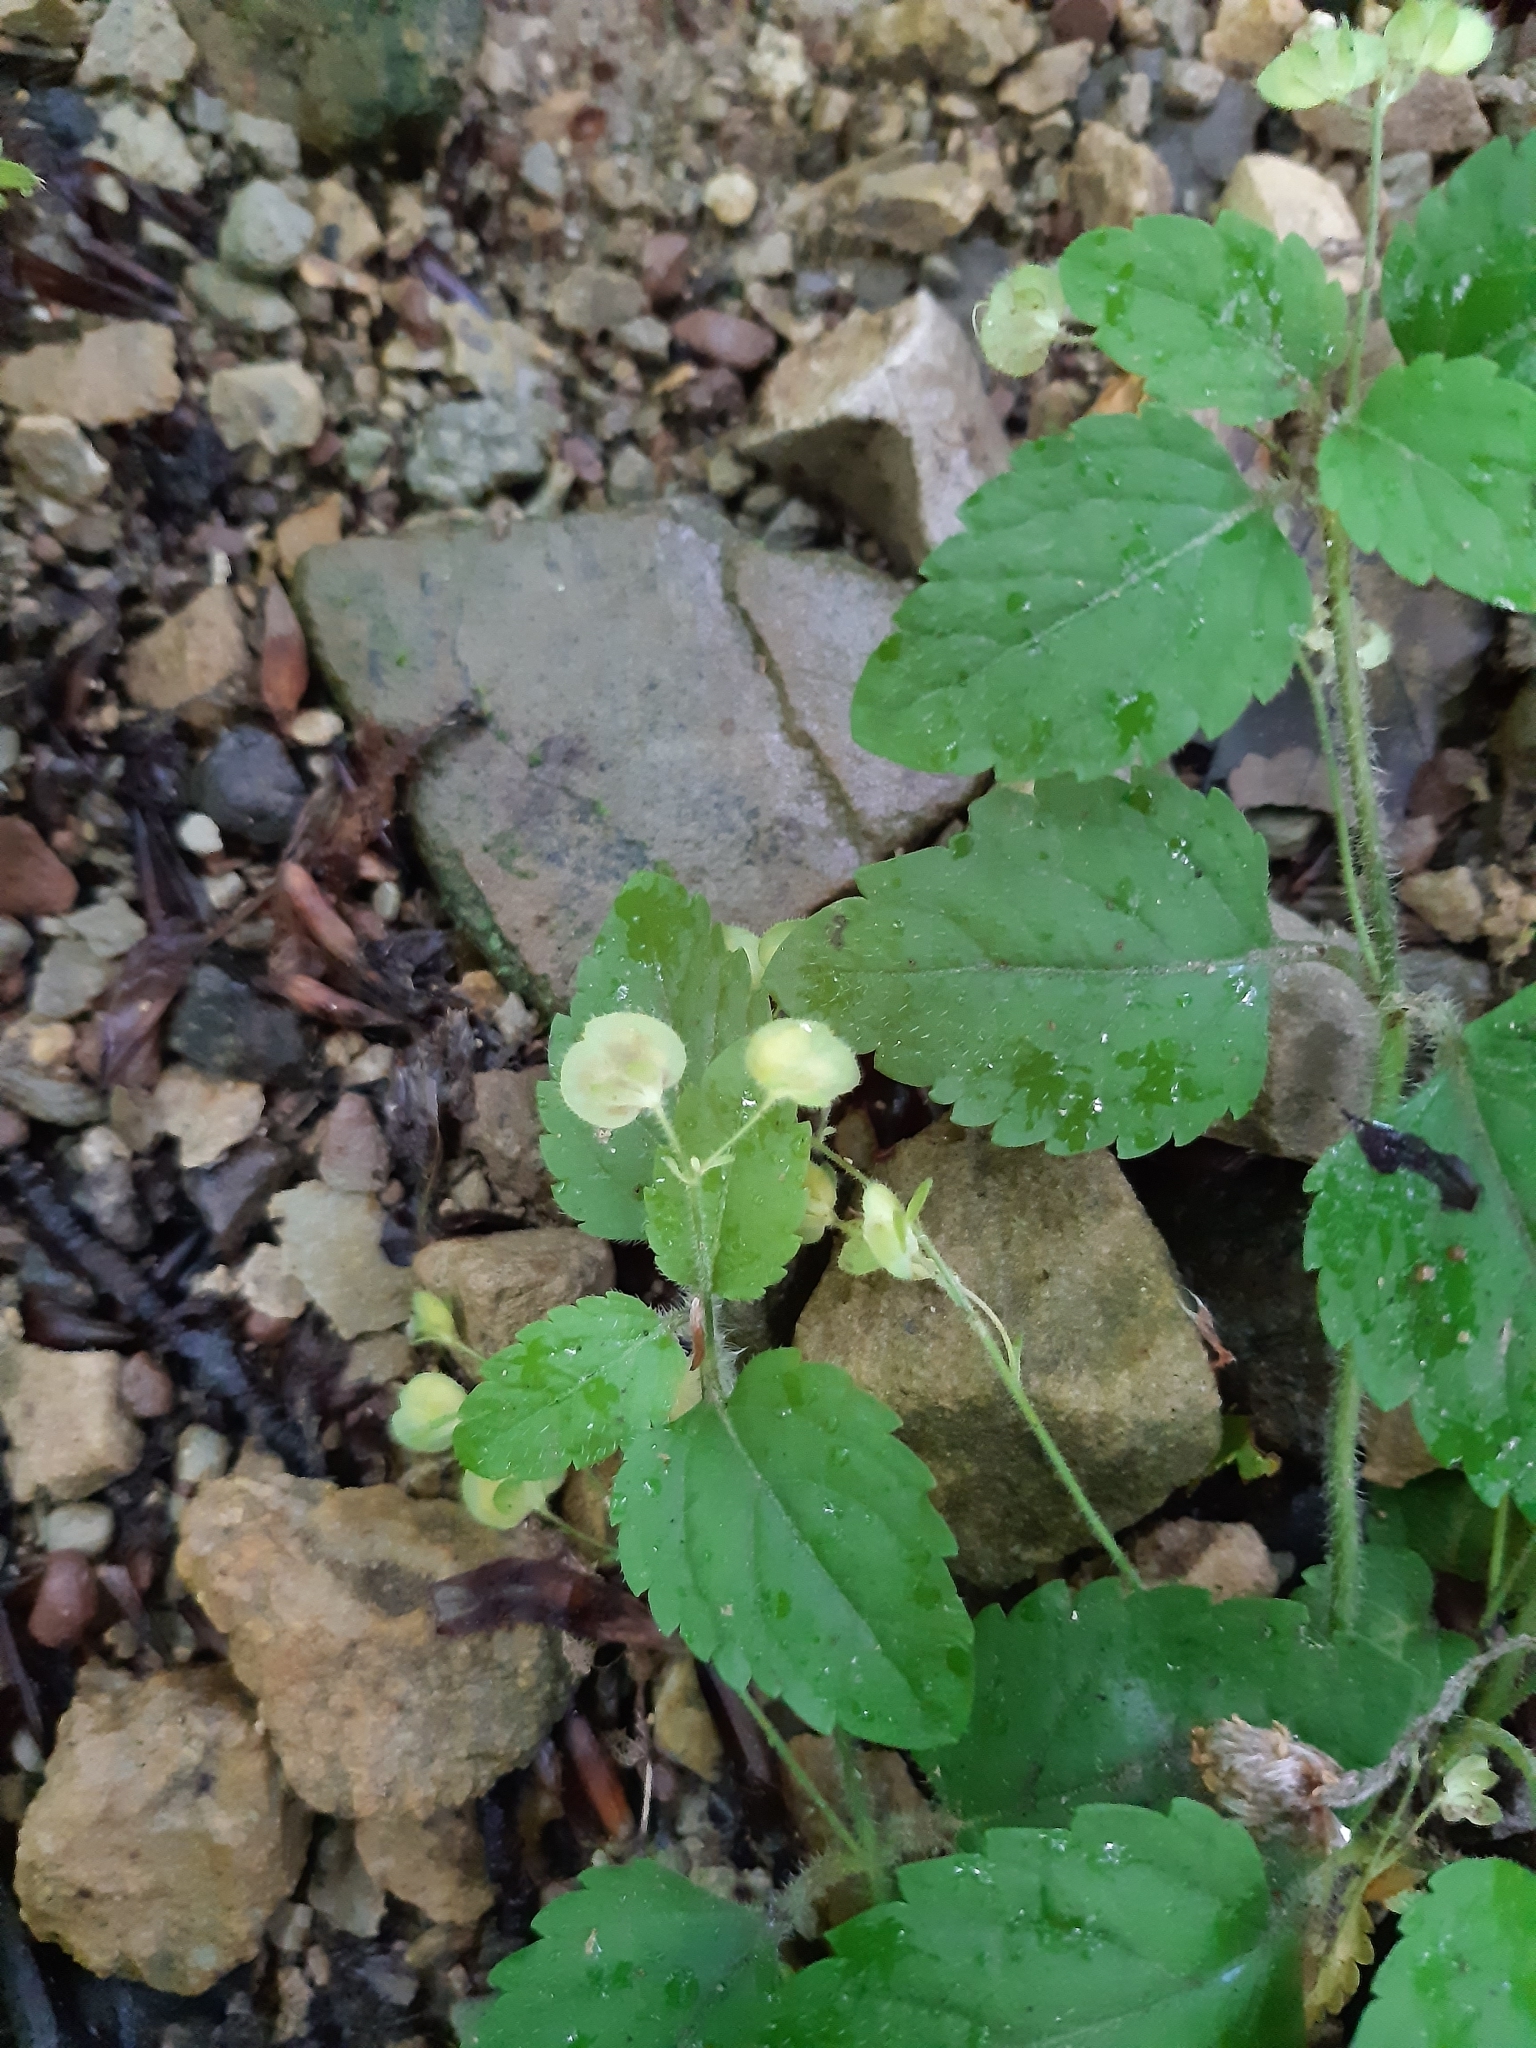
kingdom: Plantae
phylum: Tracheophyta
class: Magnoliopsida
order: Lamiales
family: Plantaginaceae
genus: Veronica
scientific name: Veronica montana
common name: Wood speedwell
